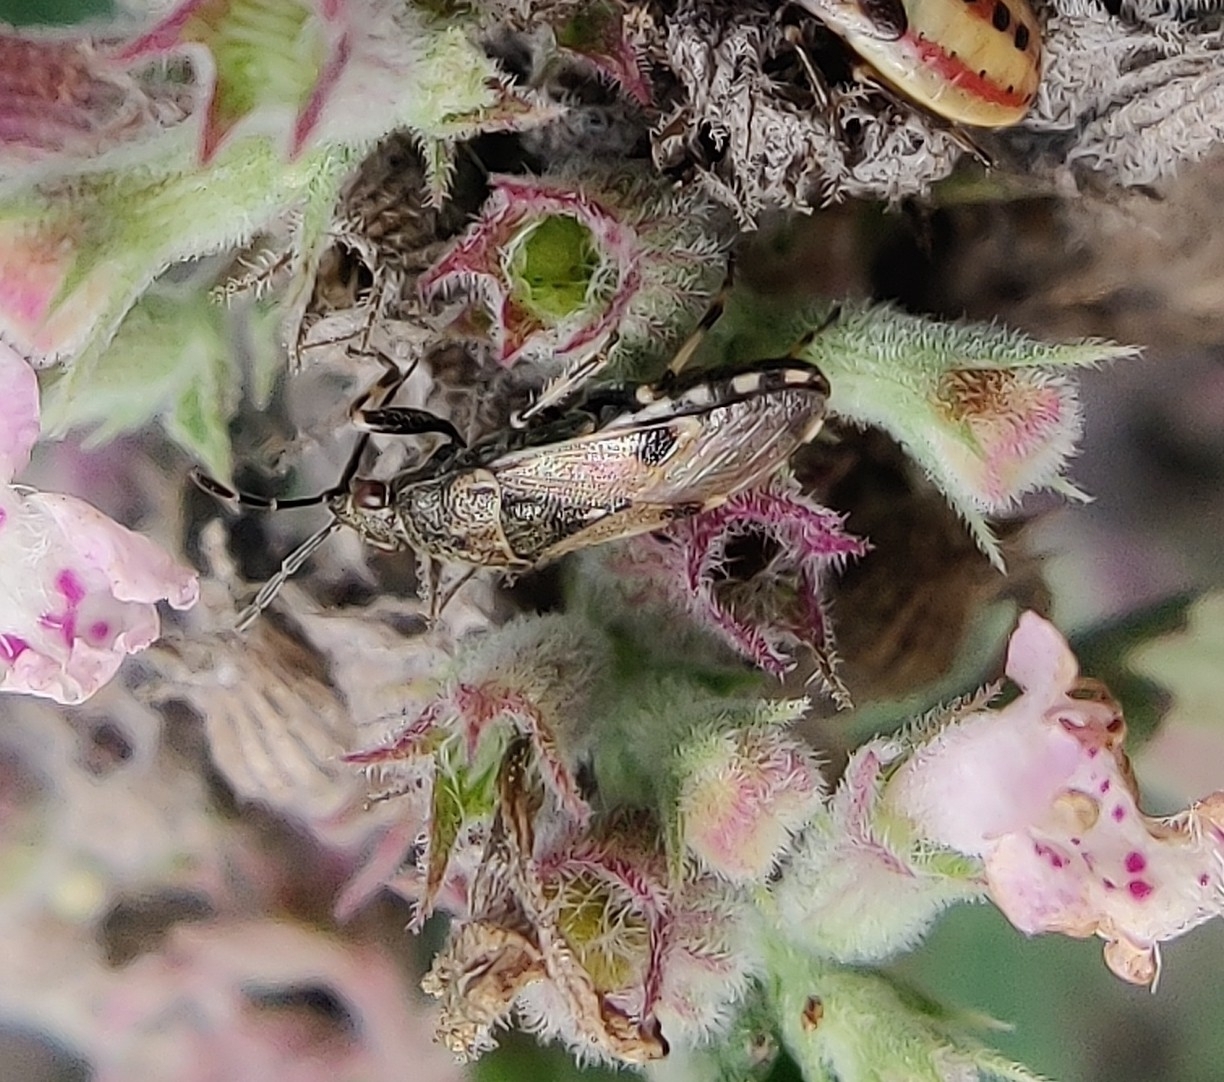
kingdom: Animalia
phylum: Arthropoda
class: Insecta
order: Hemiptera
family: Heterogastridae
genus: Heterogaster
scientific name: Heterogaster cathariae
